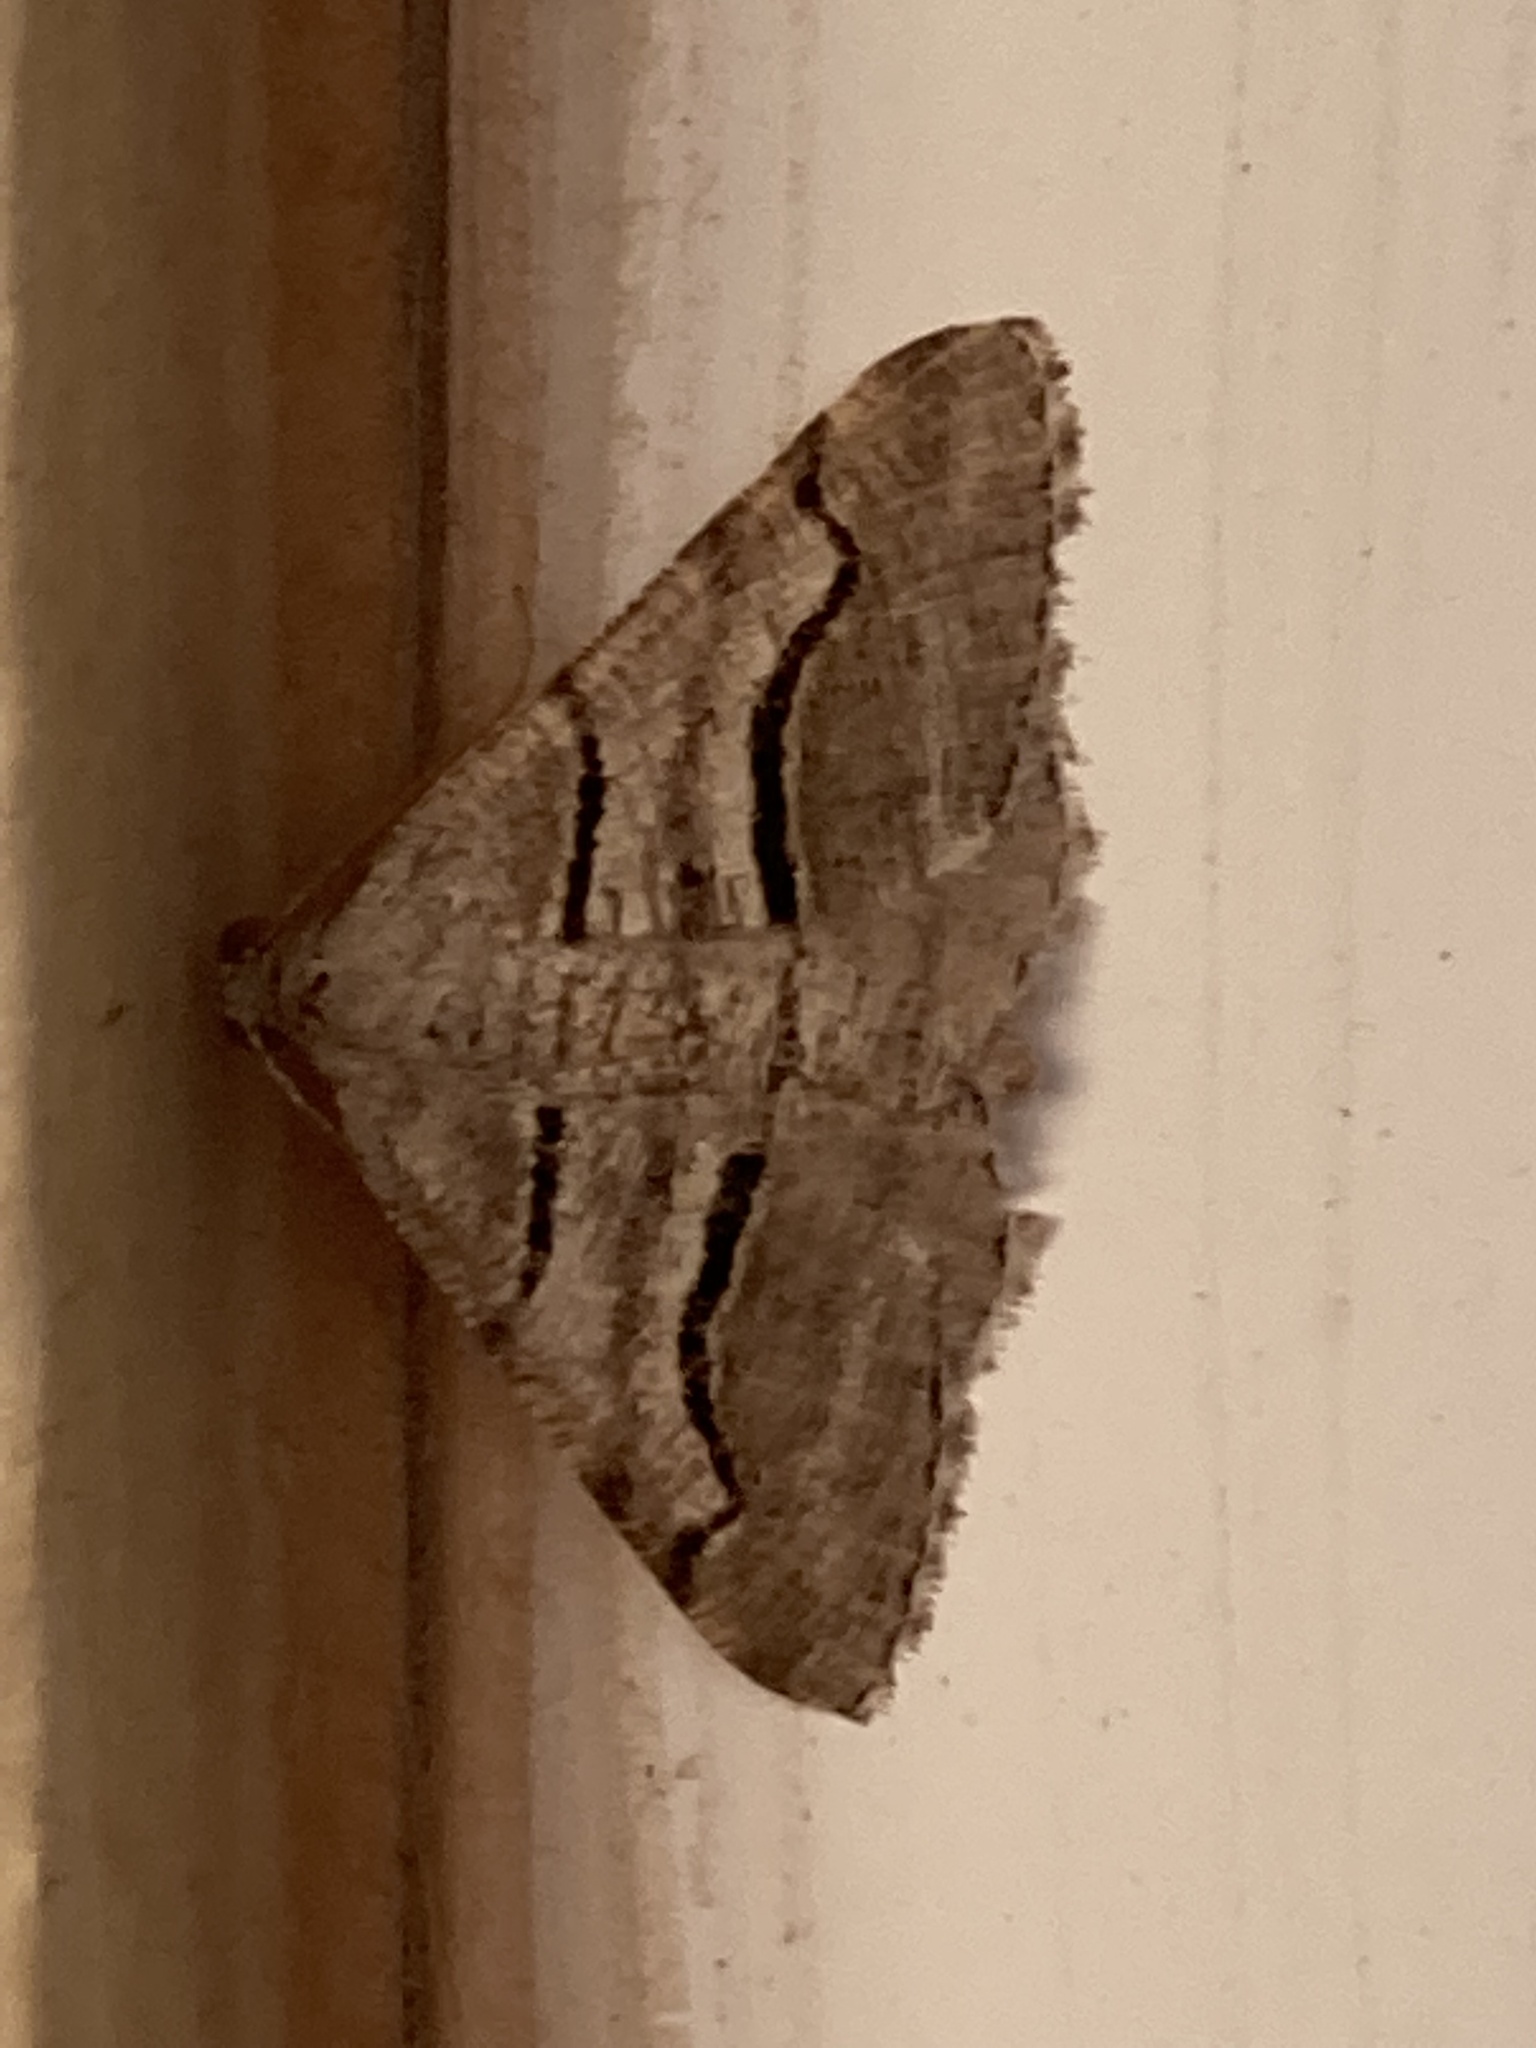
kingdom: Animalia
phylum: Arthropoda
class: Insecta
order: Lepidoptera
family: Geometridae
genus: Digrammia
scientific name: Digrammia continuata
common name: Curve-lined angle
